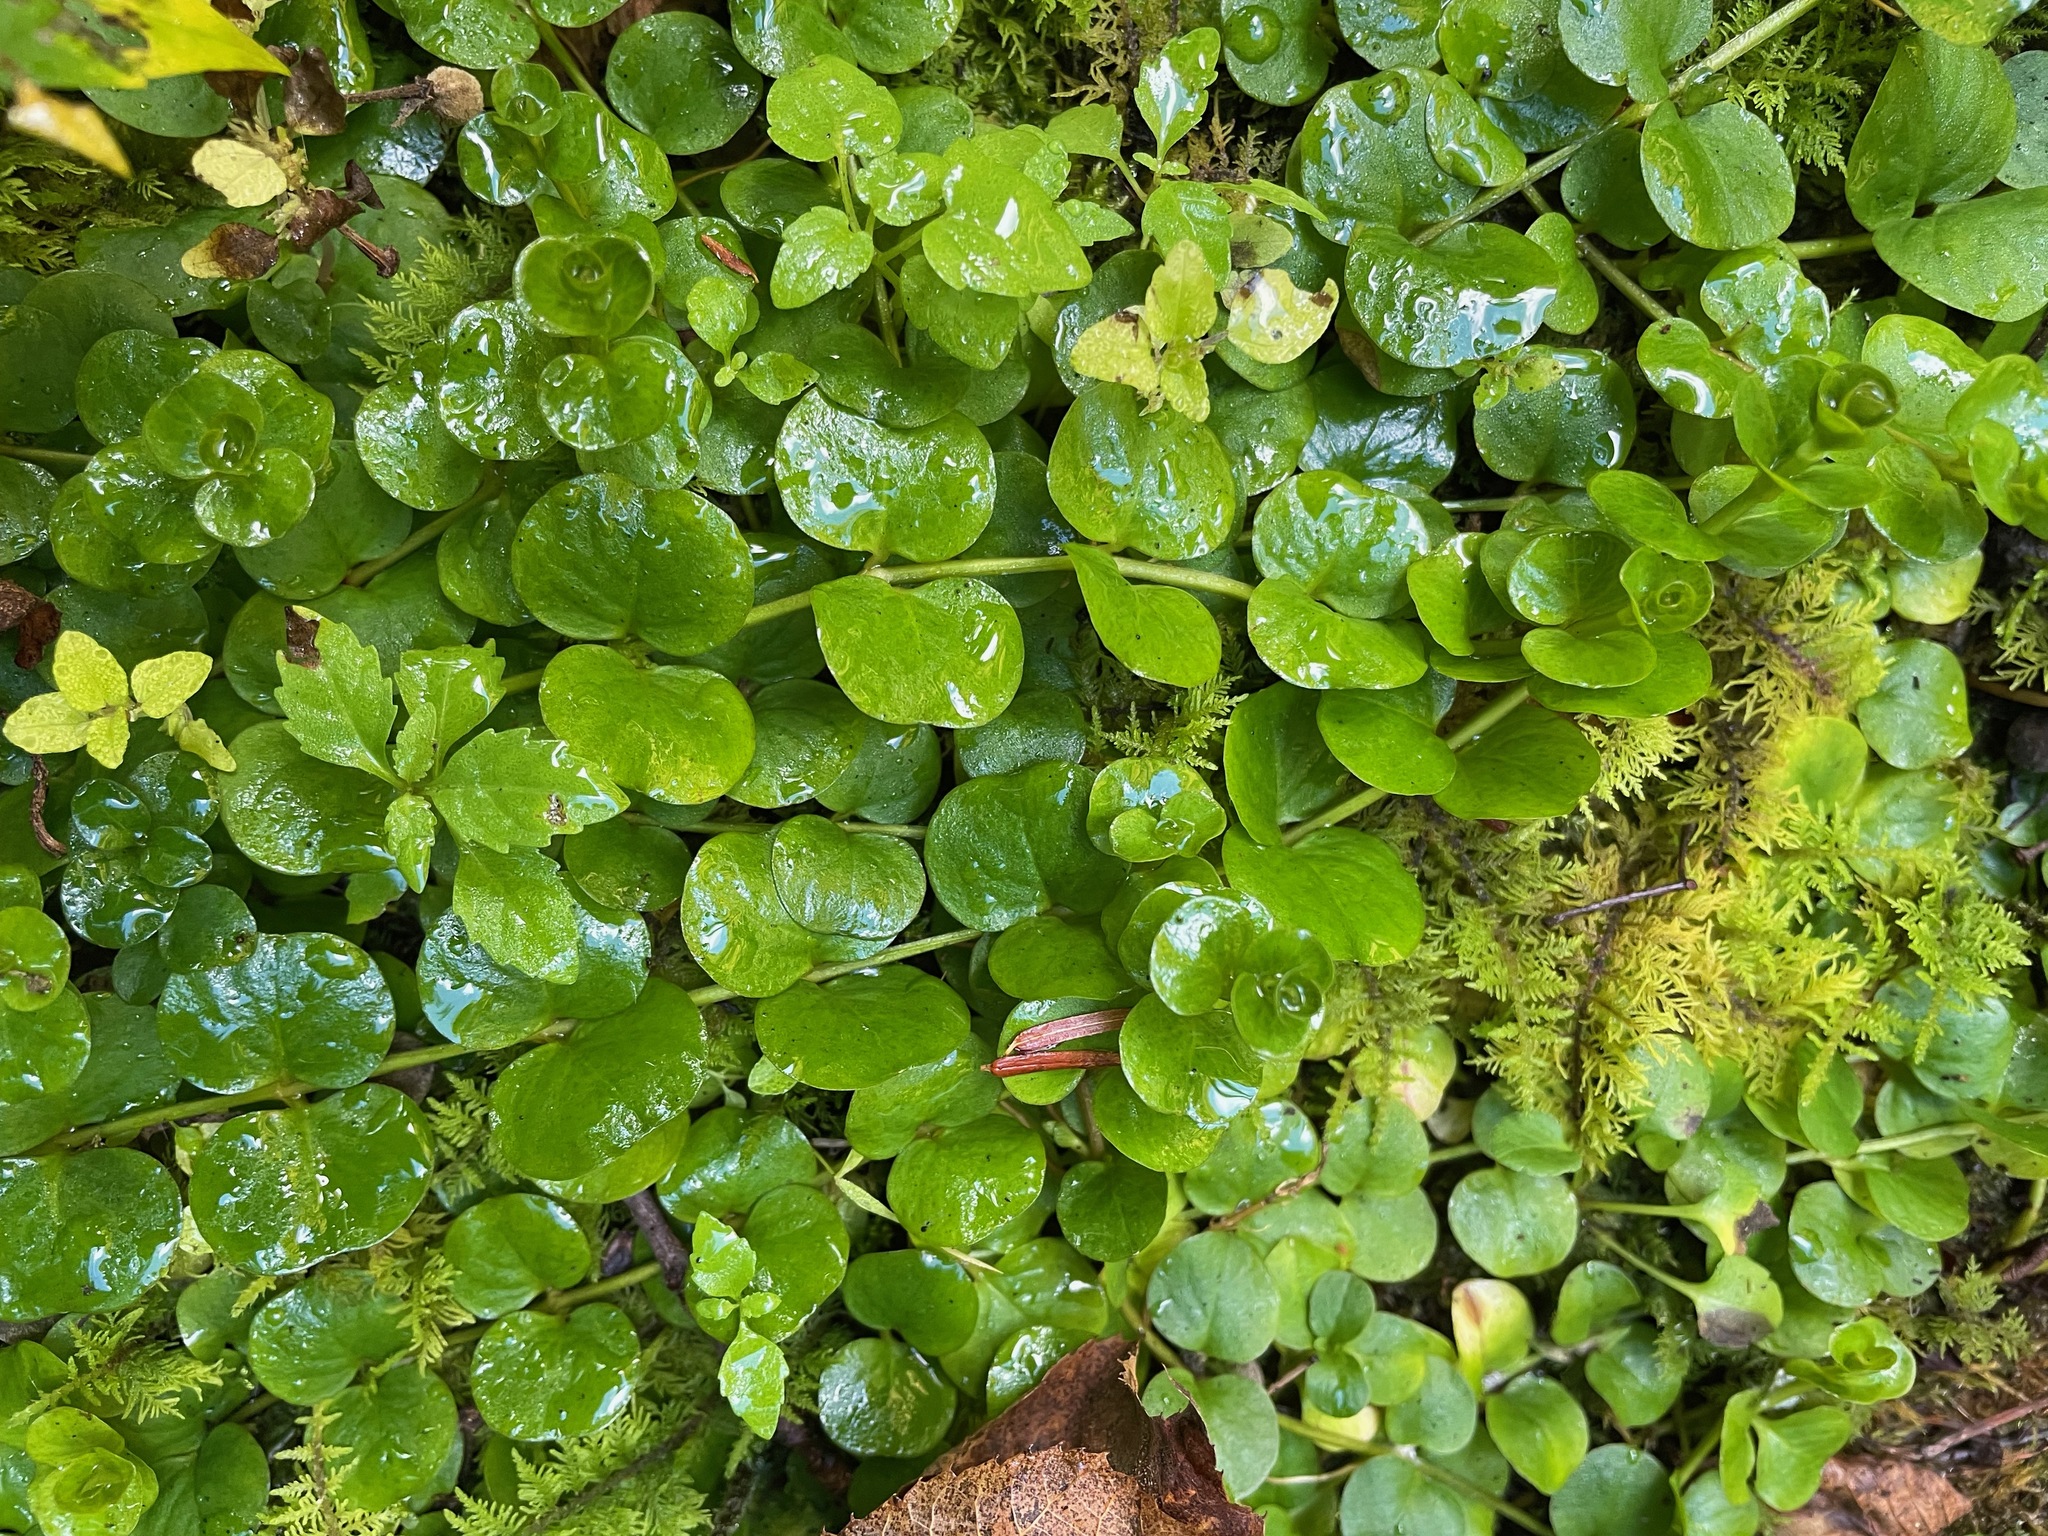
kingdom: Plantae
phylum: Tracheophyta
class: Magnoliopsida
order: Ericales
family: Primulaceae
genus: Lysimachia
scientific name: Lysimachia nummularia
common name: Moneywort
